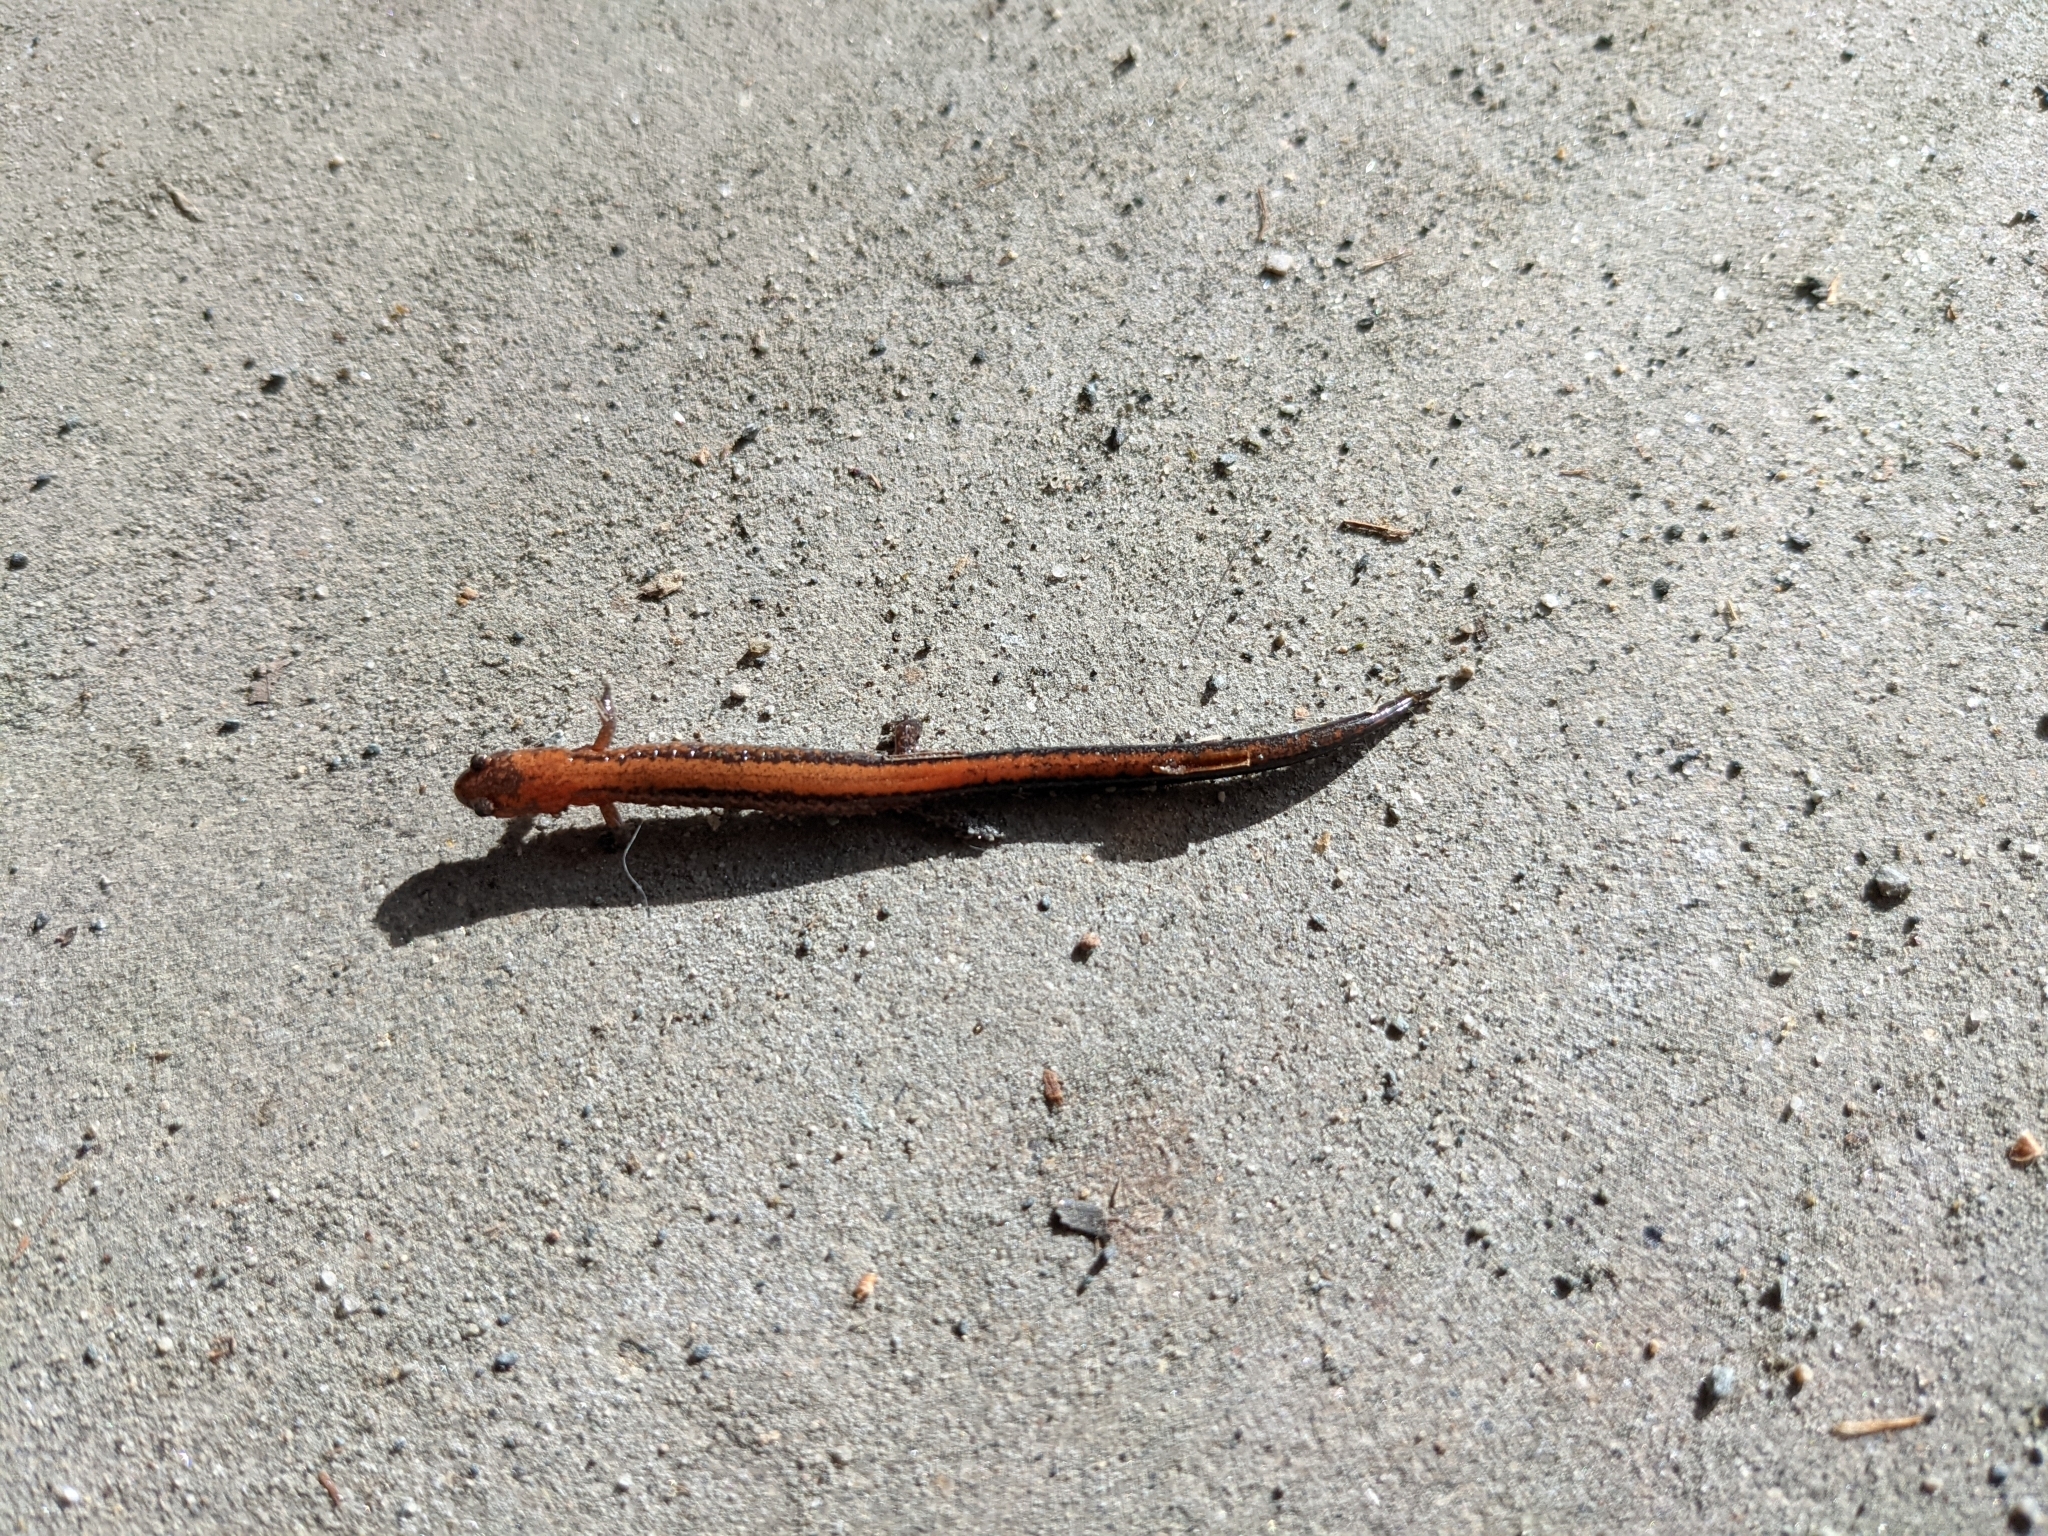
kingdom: Animalia
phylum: Chordata
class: Amphibia
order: Caudata
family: Plethodontidae
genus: Plethodon
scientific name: Plethodon cinereus
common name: Redback salamander
